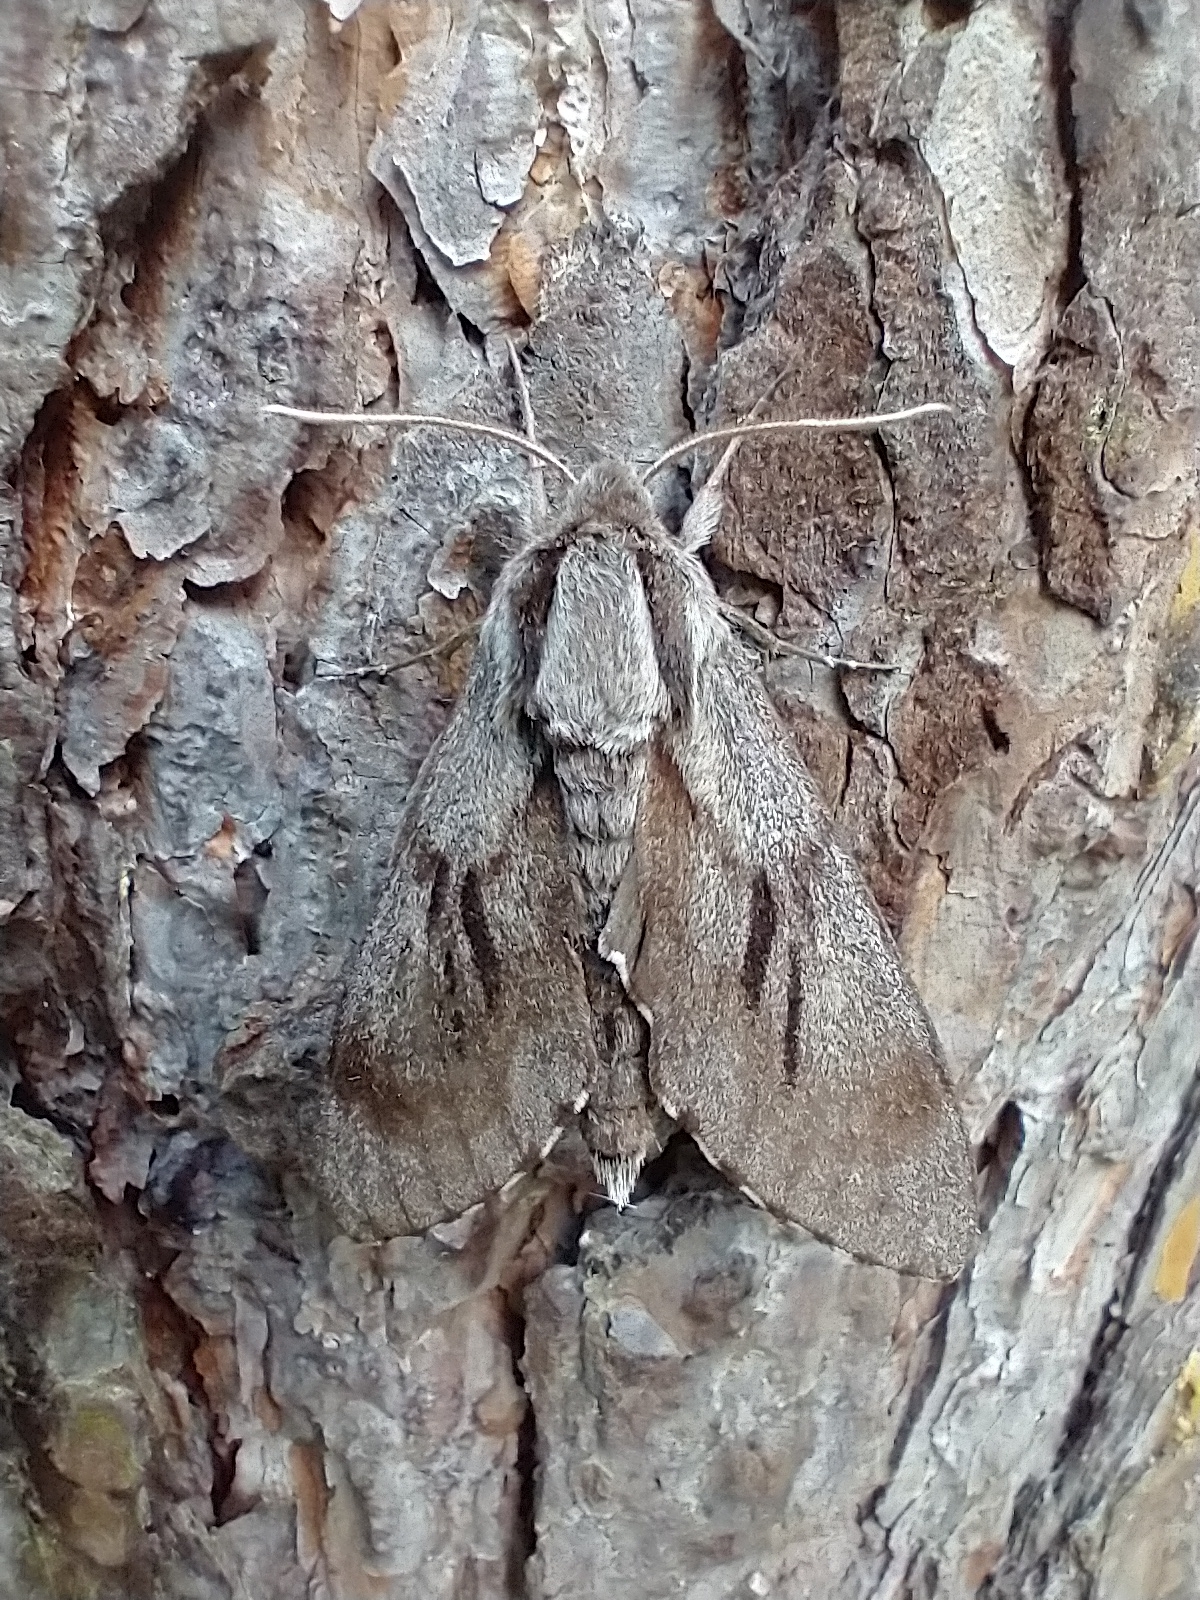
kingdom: Animalia
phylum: Arthropoda
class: Insecta
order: Lepidoptera
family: Sphingidae
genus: Sphinx
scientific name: Sphinx pinastri
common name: Pine hawk-moth
